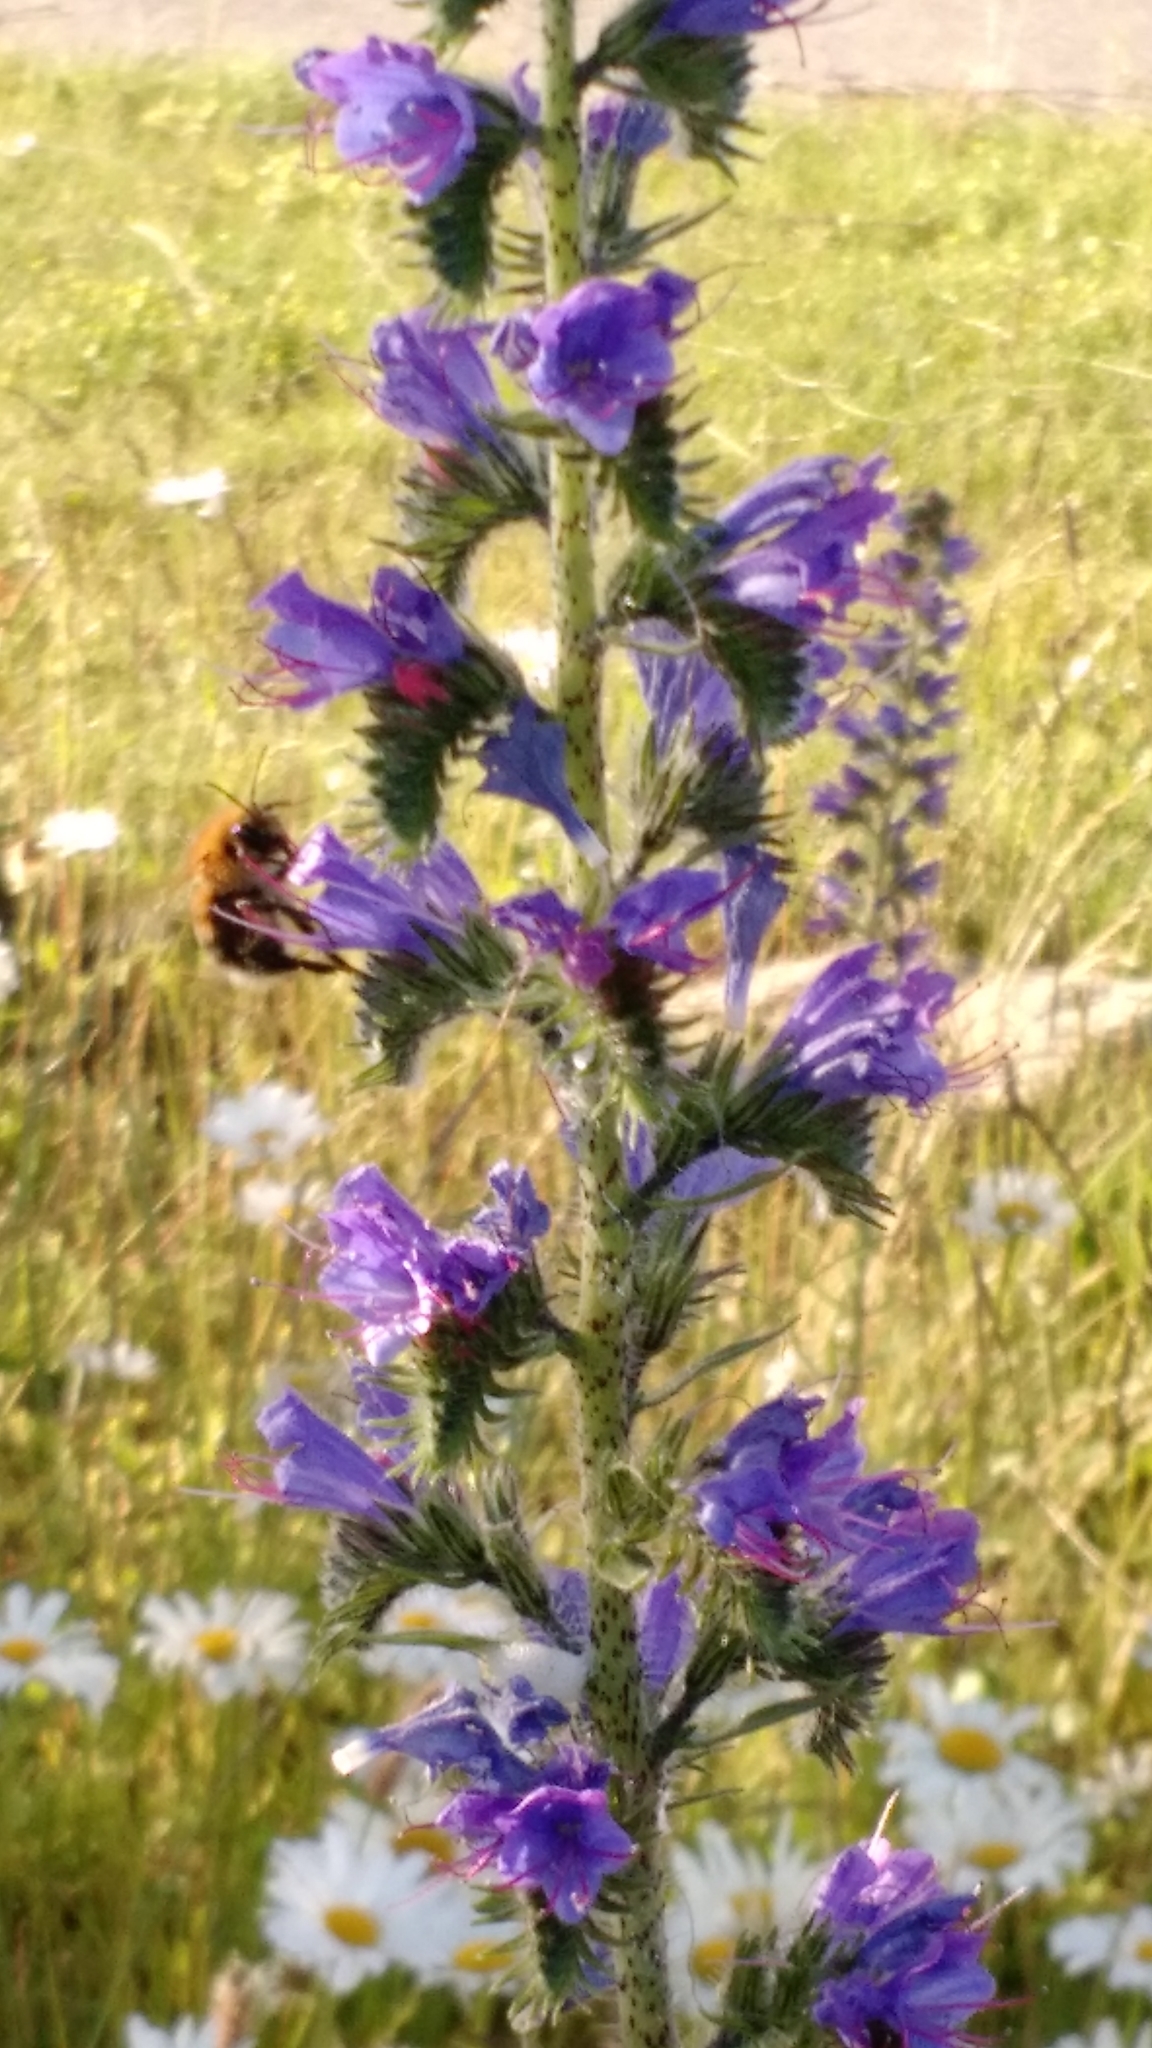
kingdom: Animalia
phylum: Arthropoda
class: Insecta
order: Hymenoptera
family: Apidae
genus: Bombus
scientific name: Bombus hypnorum
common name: New garden bumblebee
